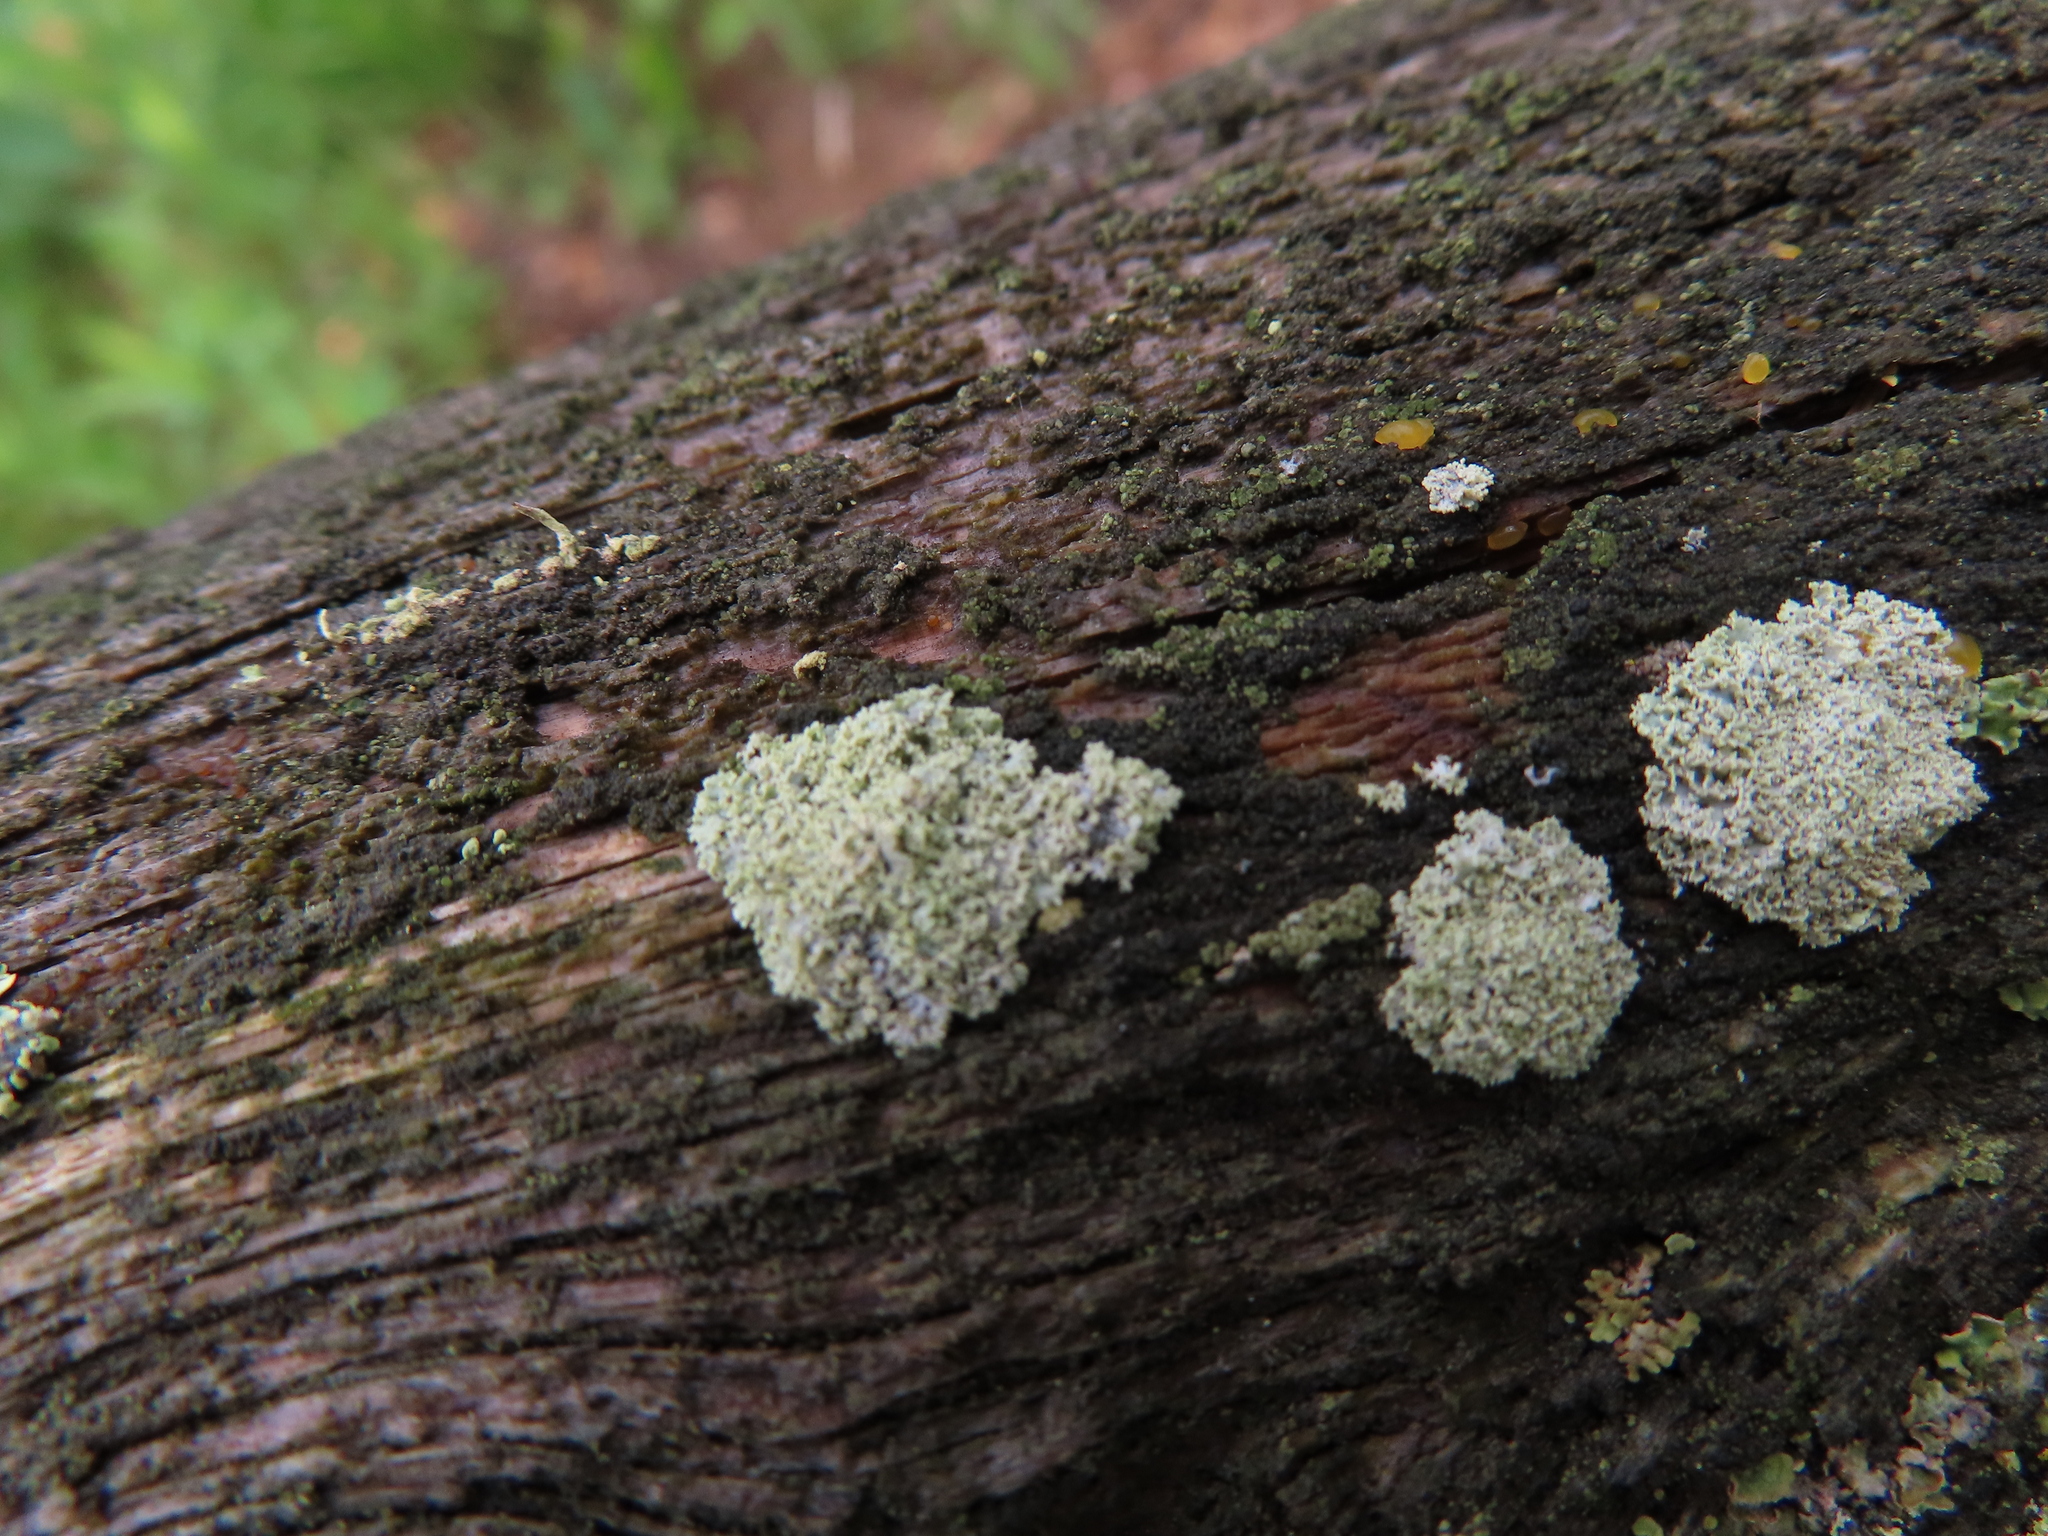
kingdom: Fungi
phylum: Ascomycota
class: Lecanoromycetes
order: Caliciales
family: Physciaceae
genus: Physcia
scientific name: Physcia millegrana
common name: Rosette lichen
